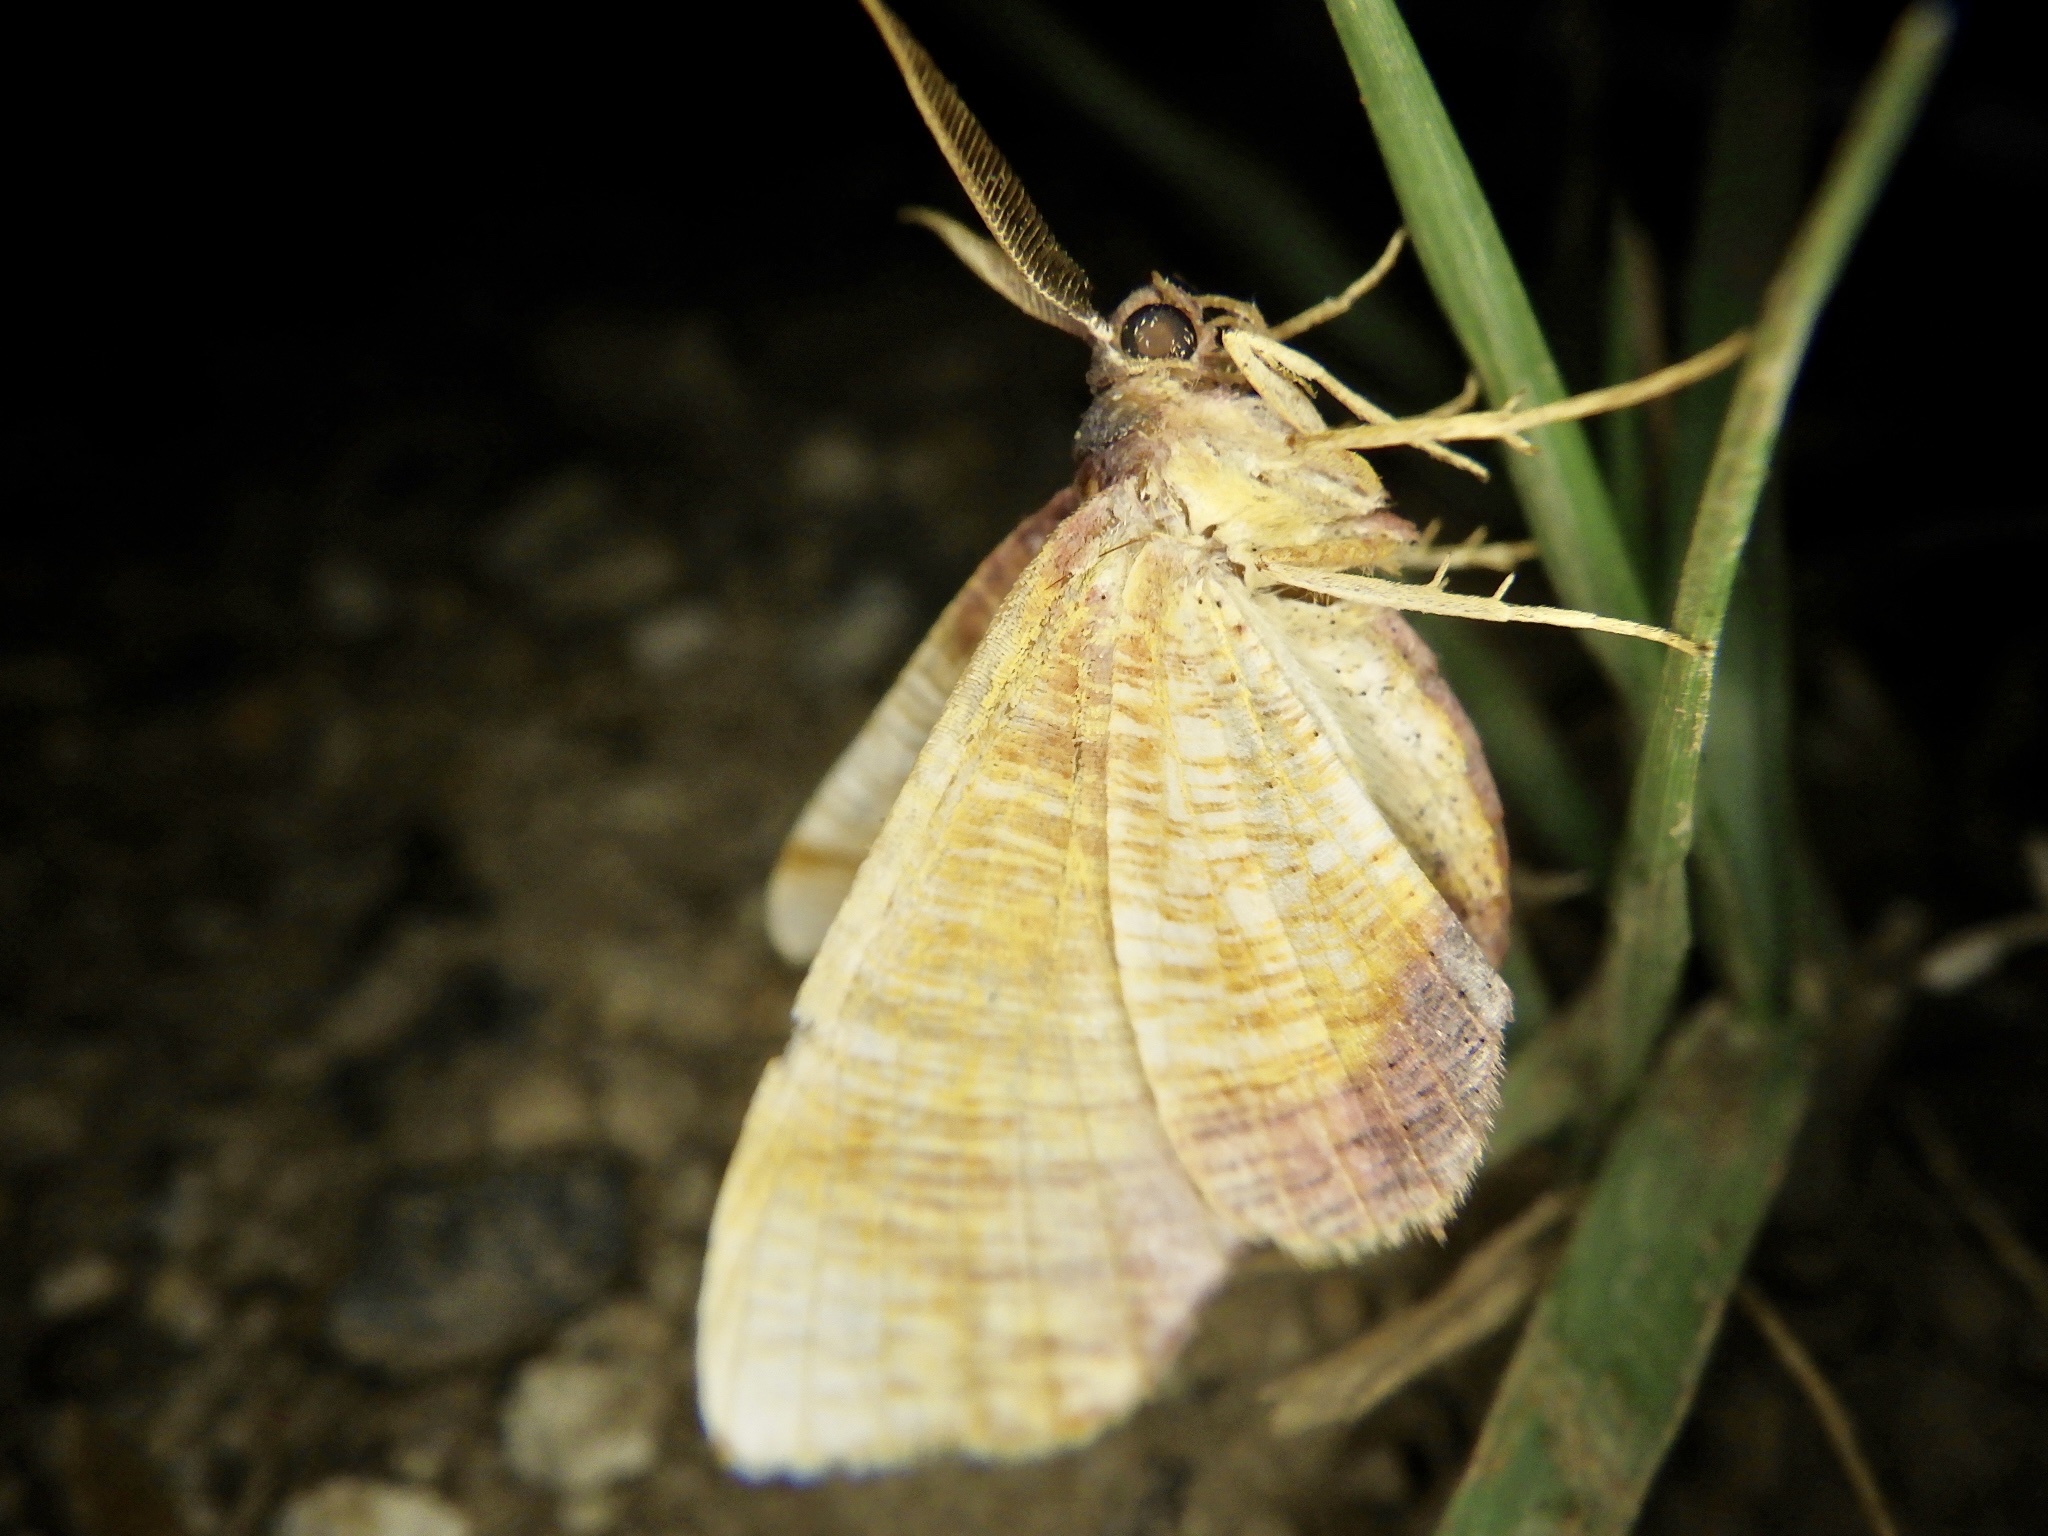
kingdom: Animalia
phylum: Arthropoda
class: Insecta
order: Lepidoptera
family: Geometridae
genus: Plagodis
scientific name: Plagodis dolabraria
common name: Scorched wing
